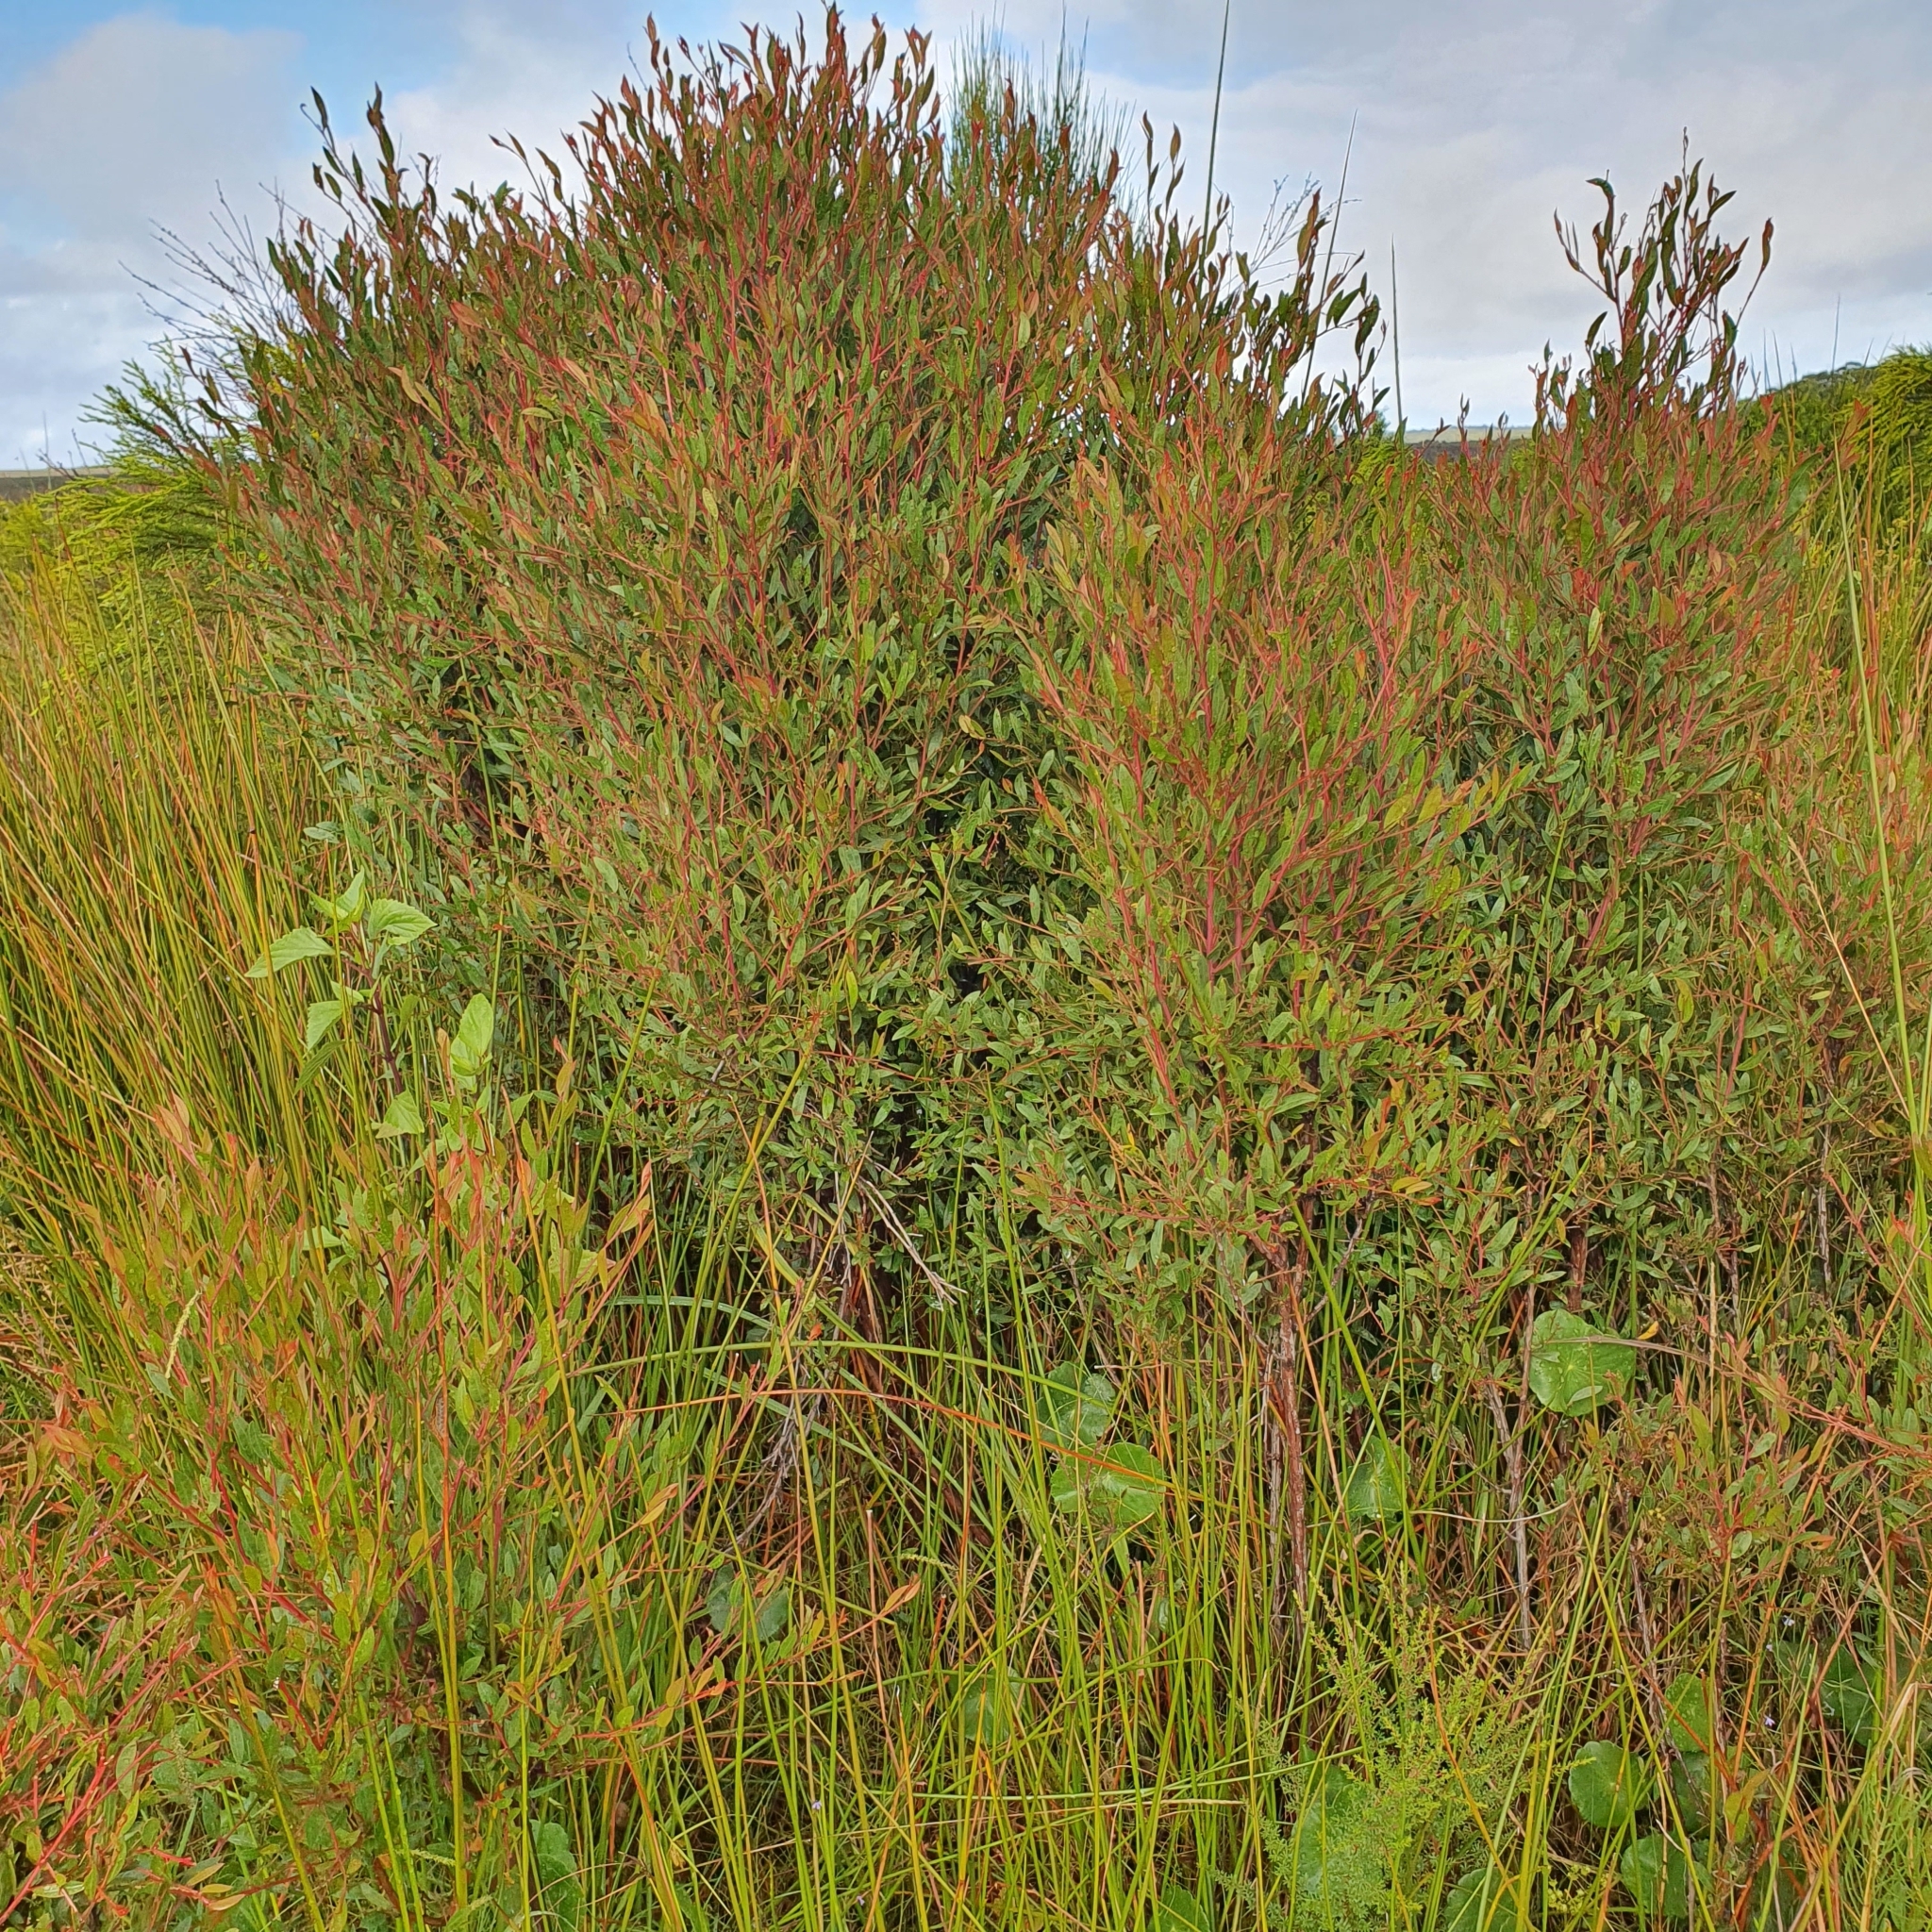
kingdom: Plantae
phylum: Tracheophyta
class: Magnoliopsida
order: Fabales
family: Fabaceae
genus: Acacia
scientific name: Acacia myrtifolia
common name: Myrtle wattle
